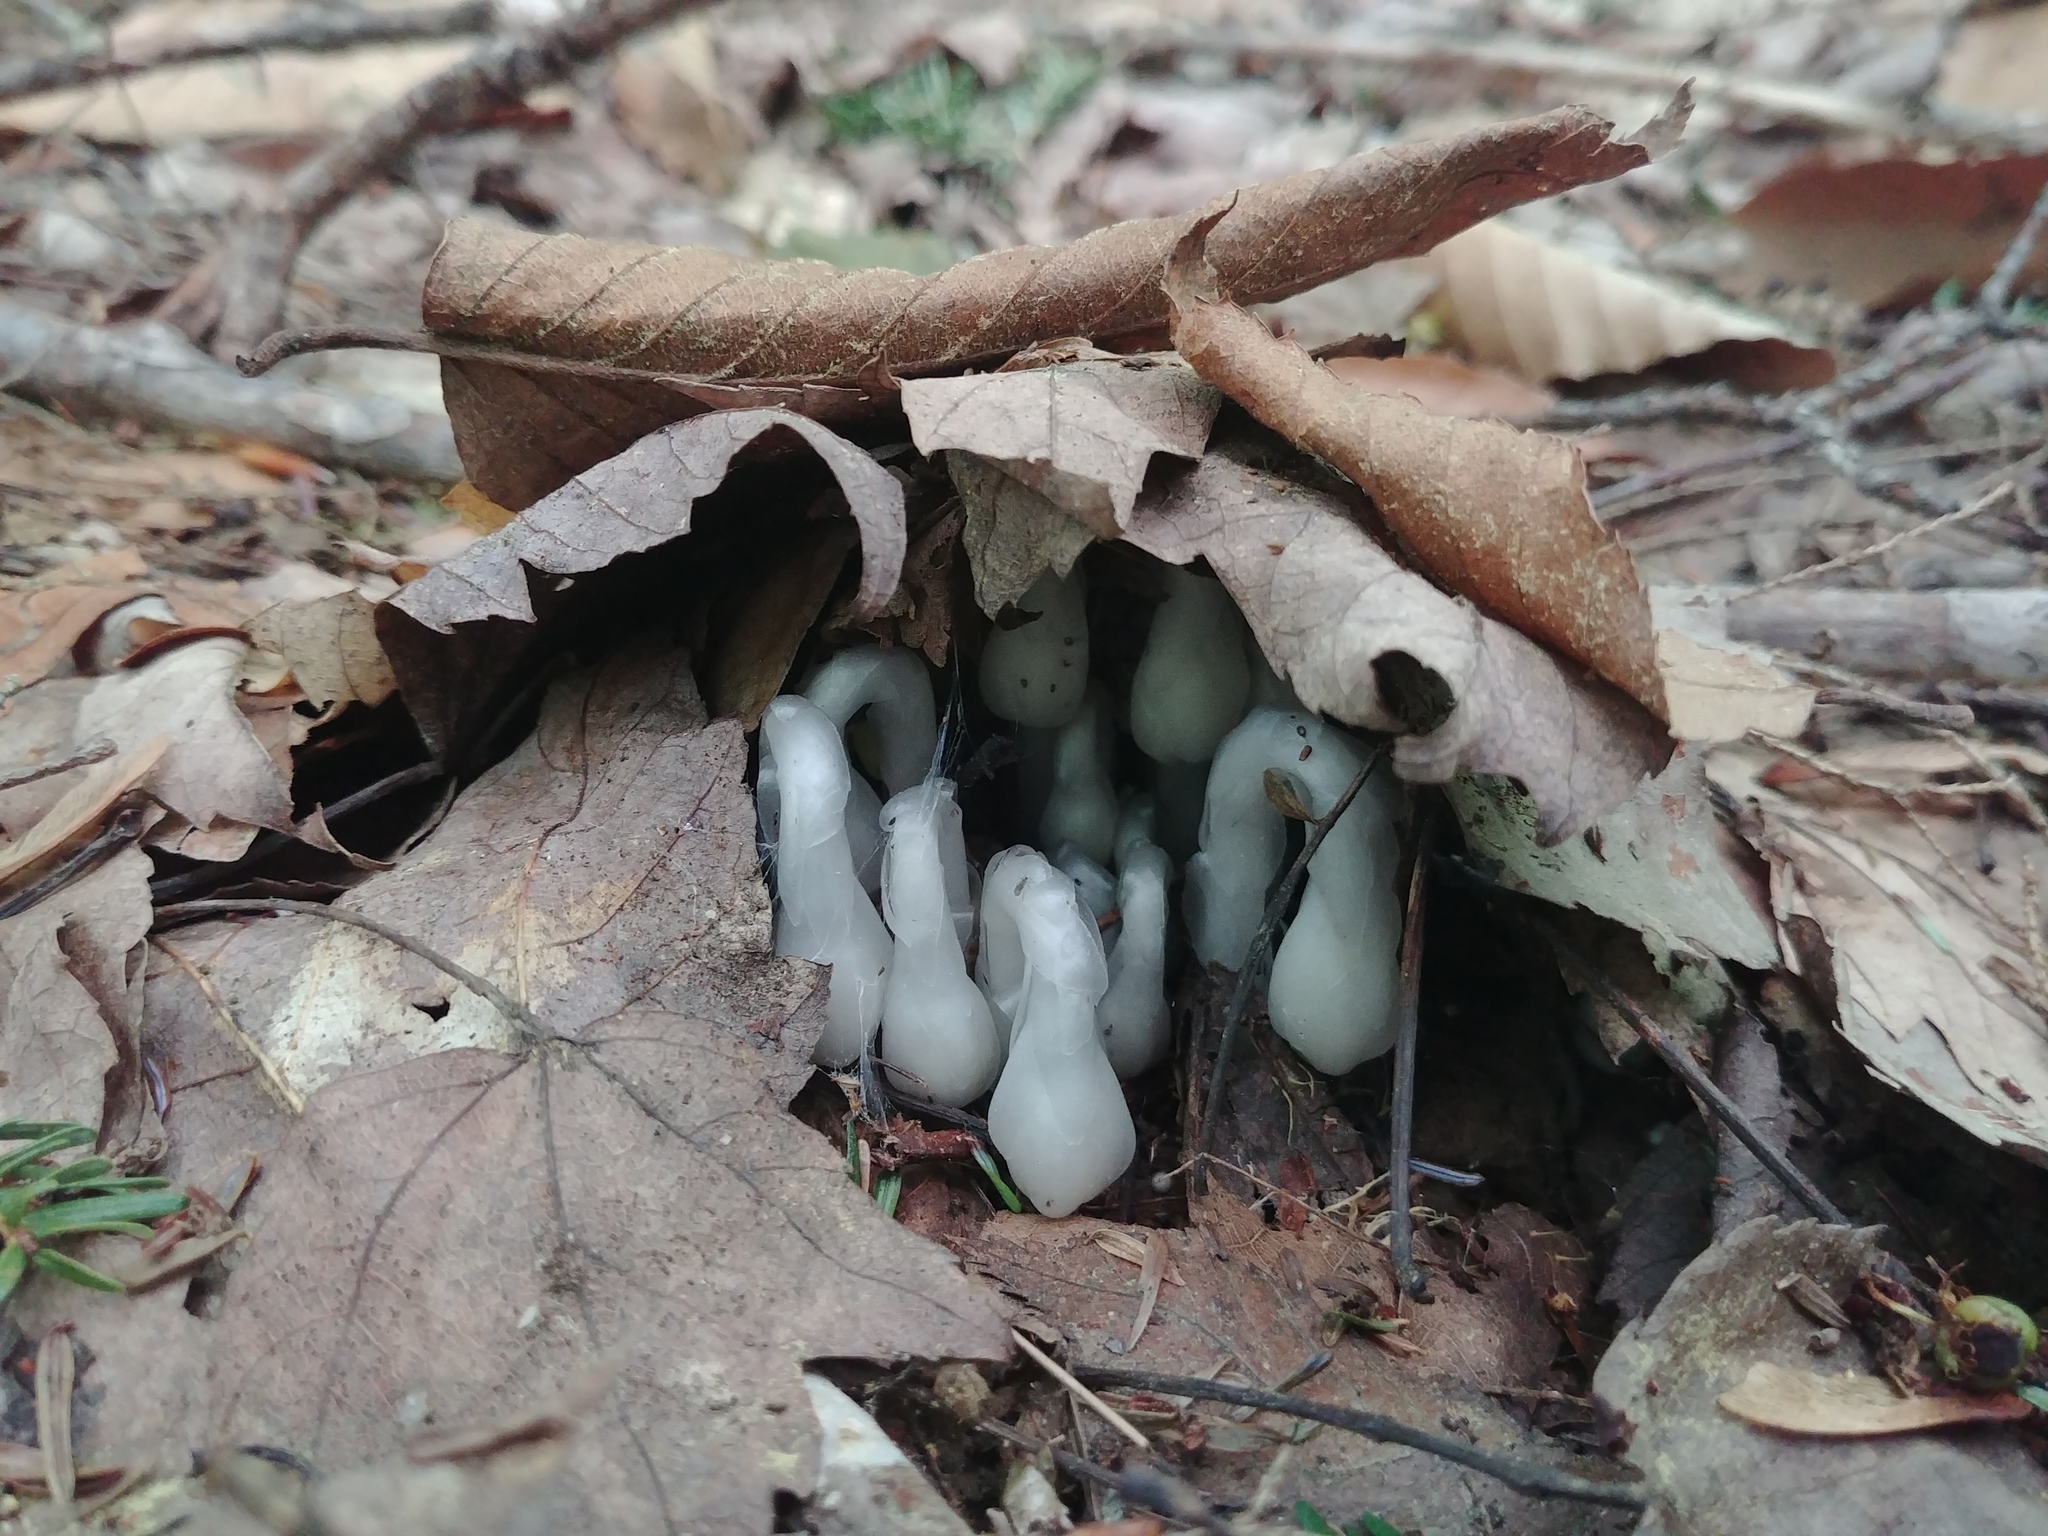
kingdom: Plantae
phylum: Tracheophyta
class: Magnoliopsida
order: Ericales
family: Ericaceae
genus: Monotropa
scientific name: Monotropa uniflora
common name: Convulsion root
